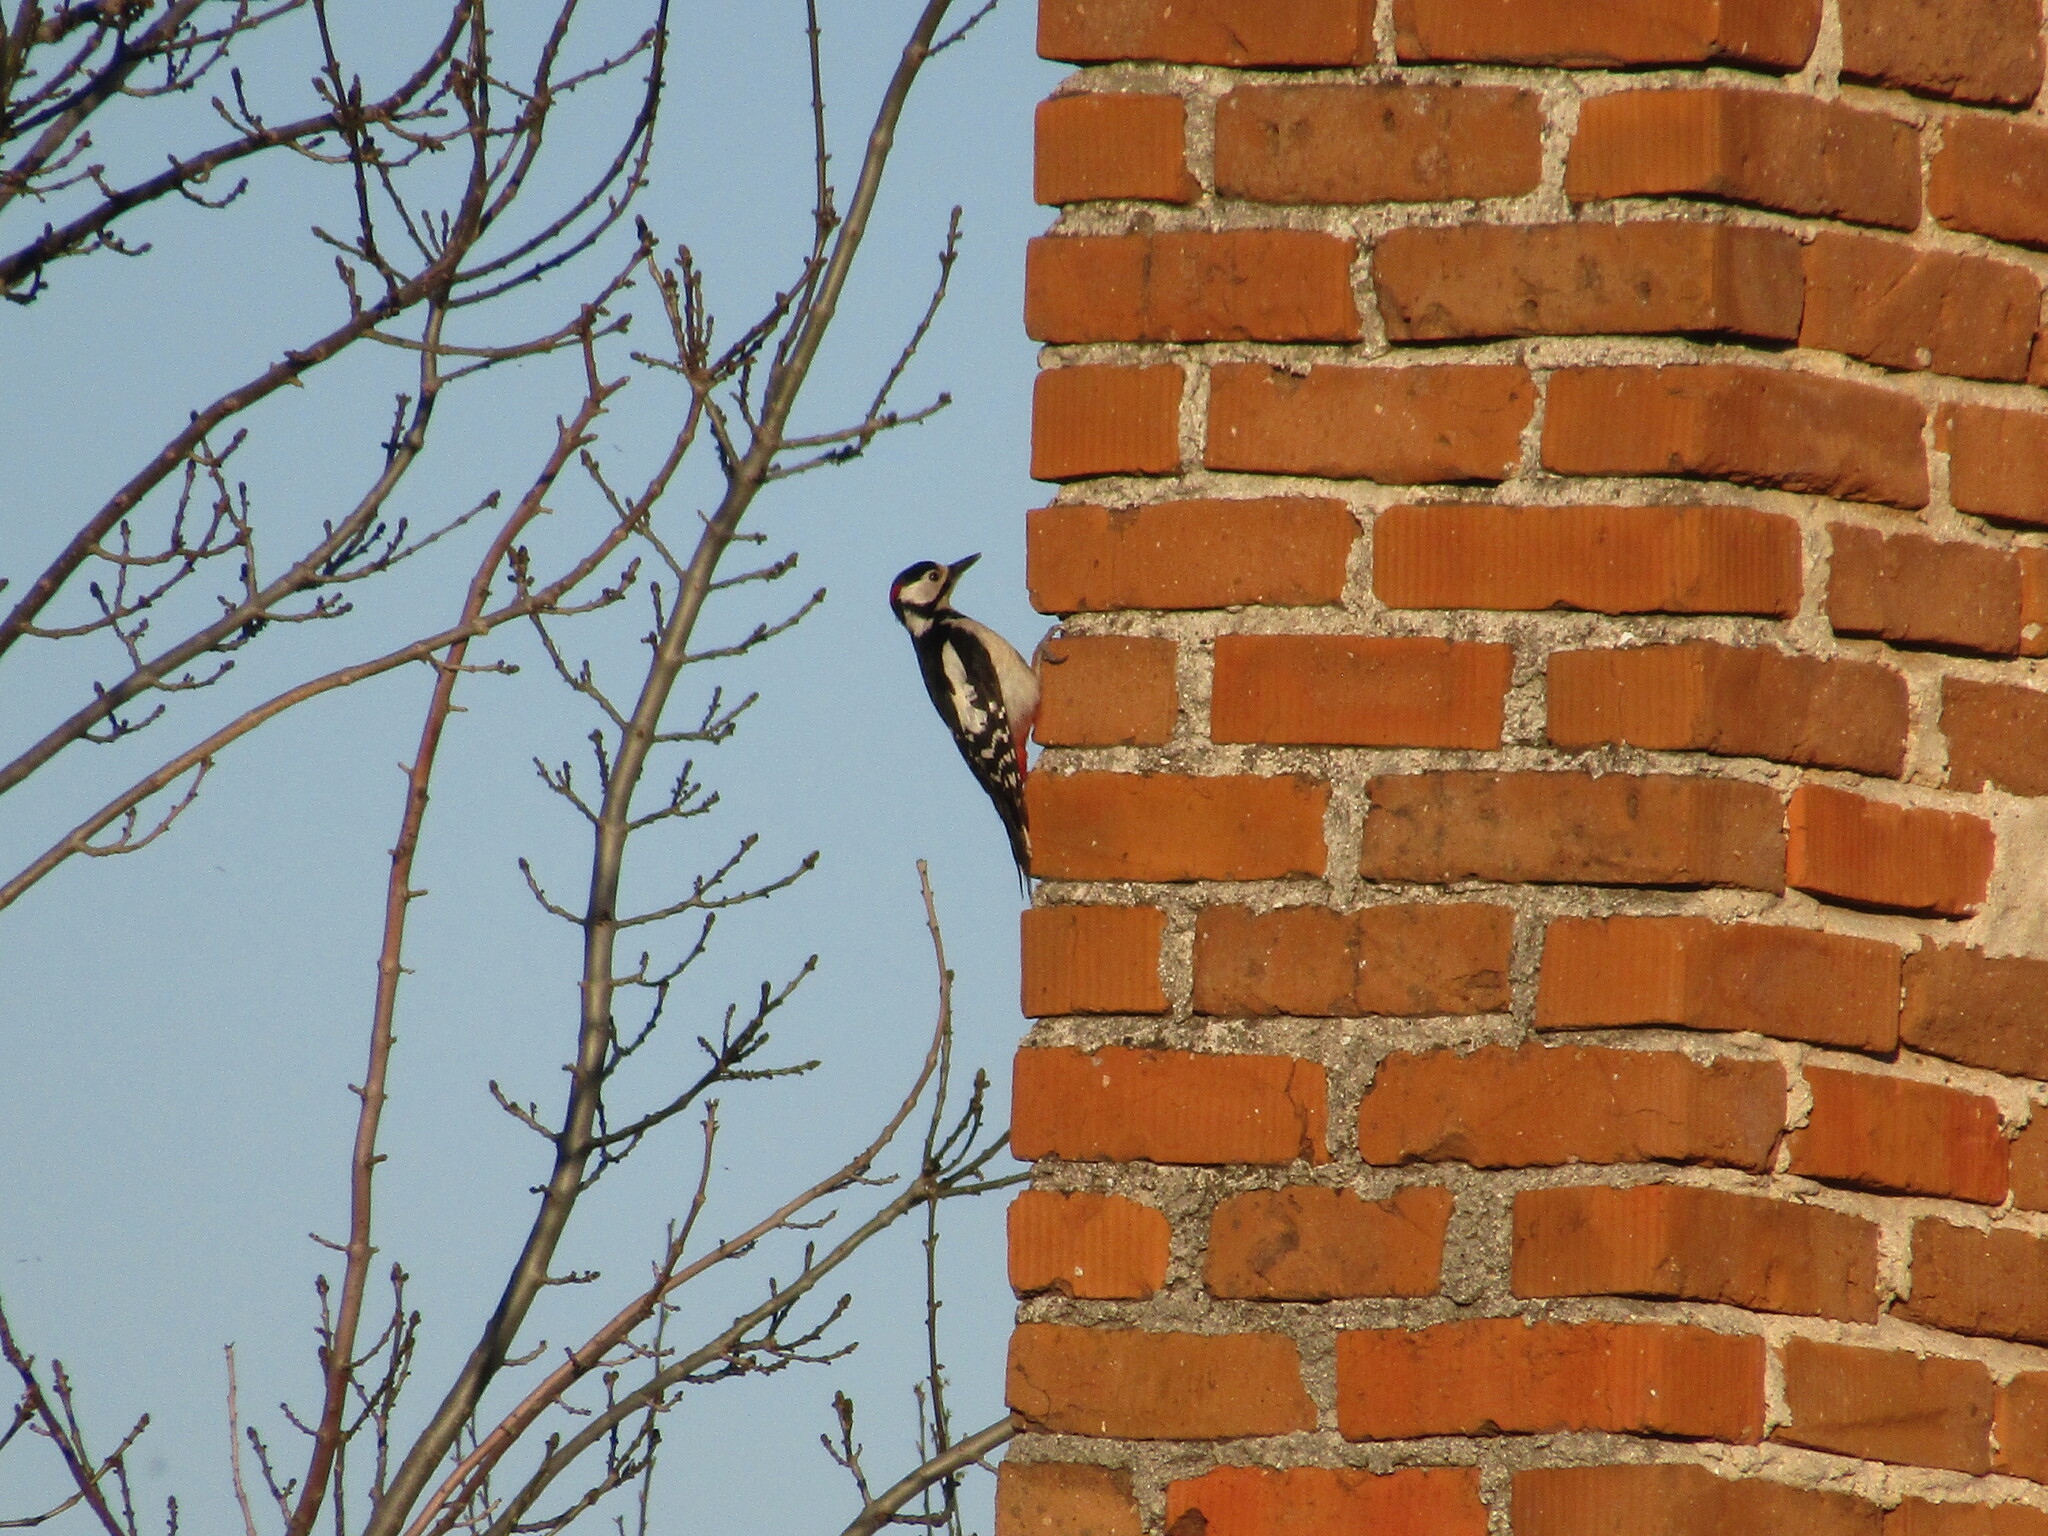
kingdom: Animalia
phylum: Chordata
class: Aves
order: Piciformes
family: Picidae
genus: Dendrocopos
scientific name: Dendrocopos major
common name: Great spotted woodpecker
